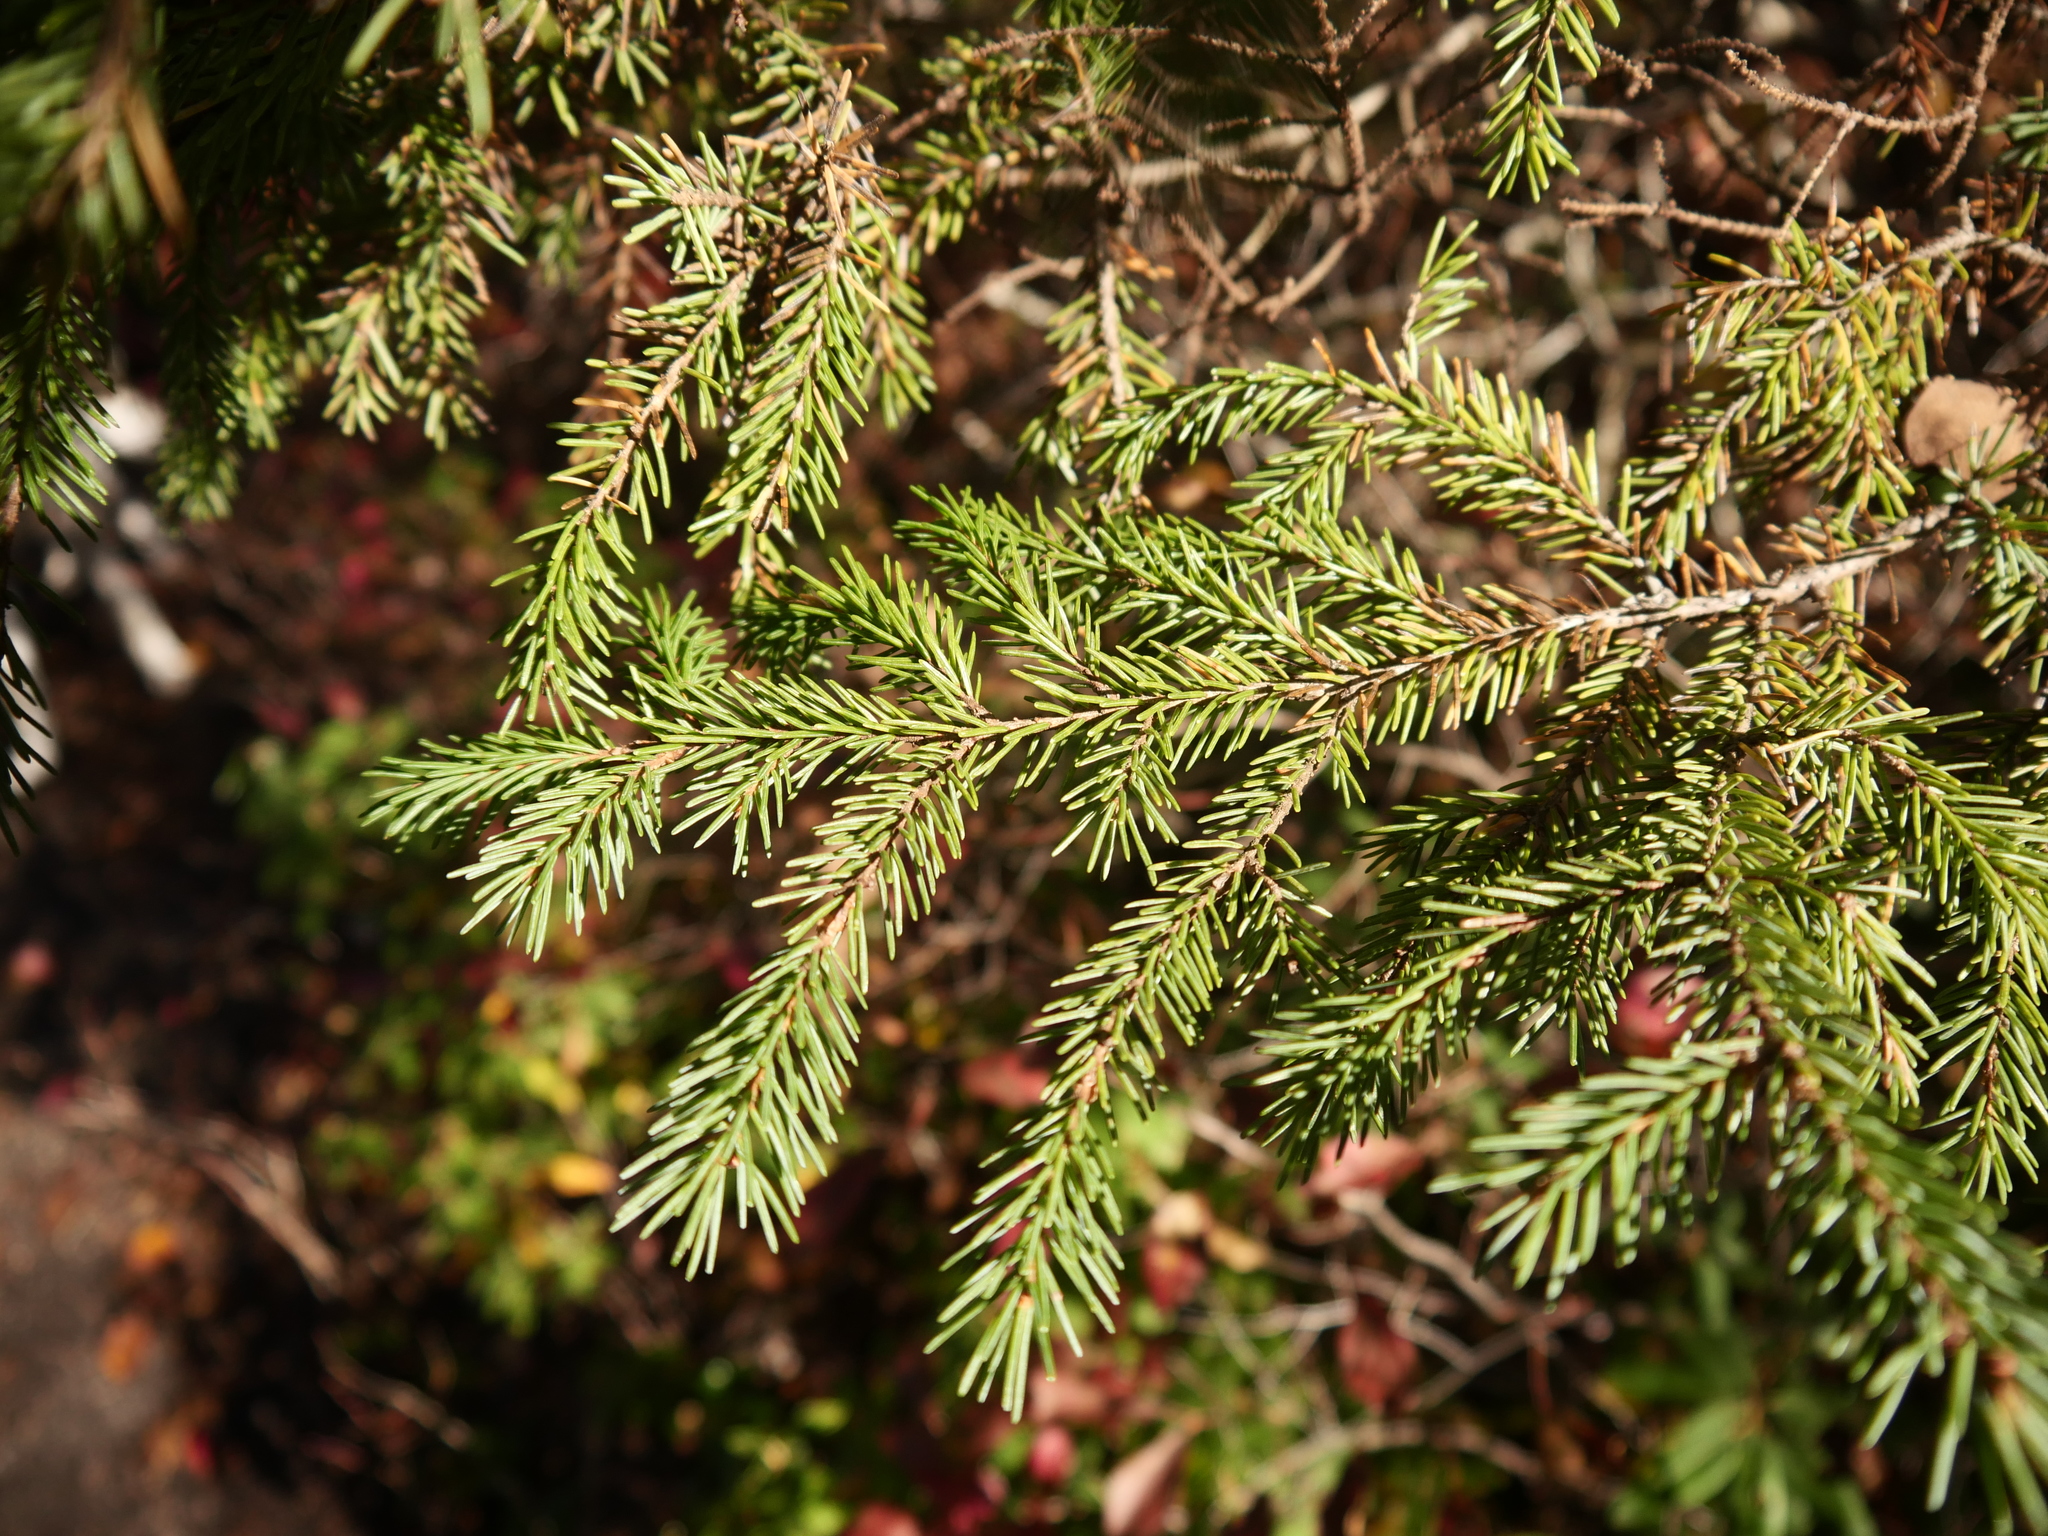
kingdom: Plantae
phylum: Tracheophyta
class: Pinopsida
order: Pinales
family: Pinaceae
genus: Picea
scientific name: Picea mariana
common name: Black spruce
